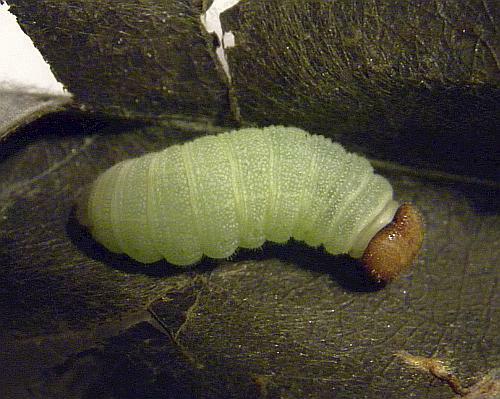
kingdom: Animalia
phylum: Arthropoda
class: Insecta
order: Lepidoptera
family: Hesperiidae
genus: Erynnis
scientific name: Erynnis icelus
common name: Dreamy duskywing
